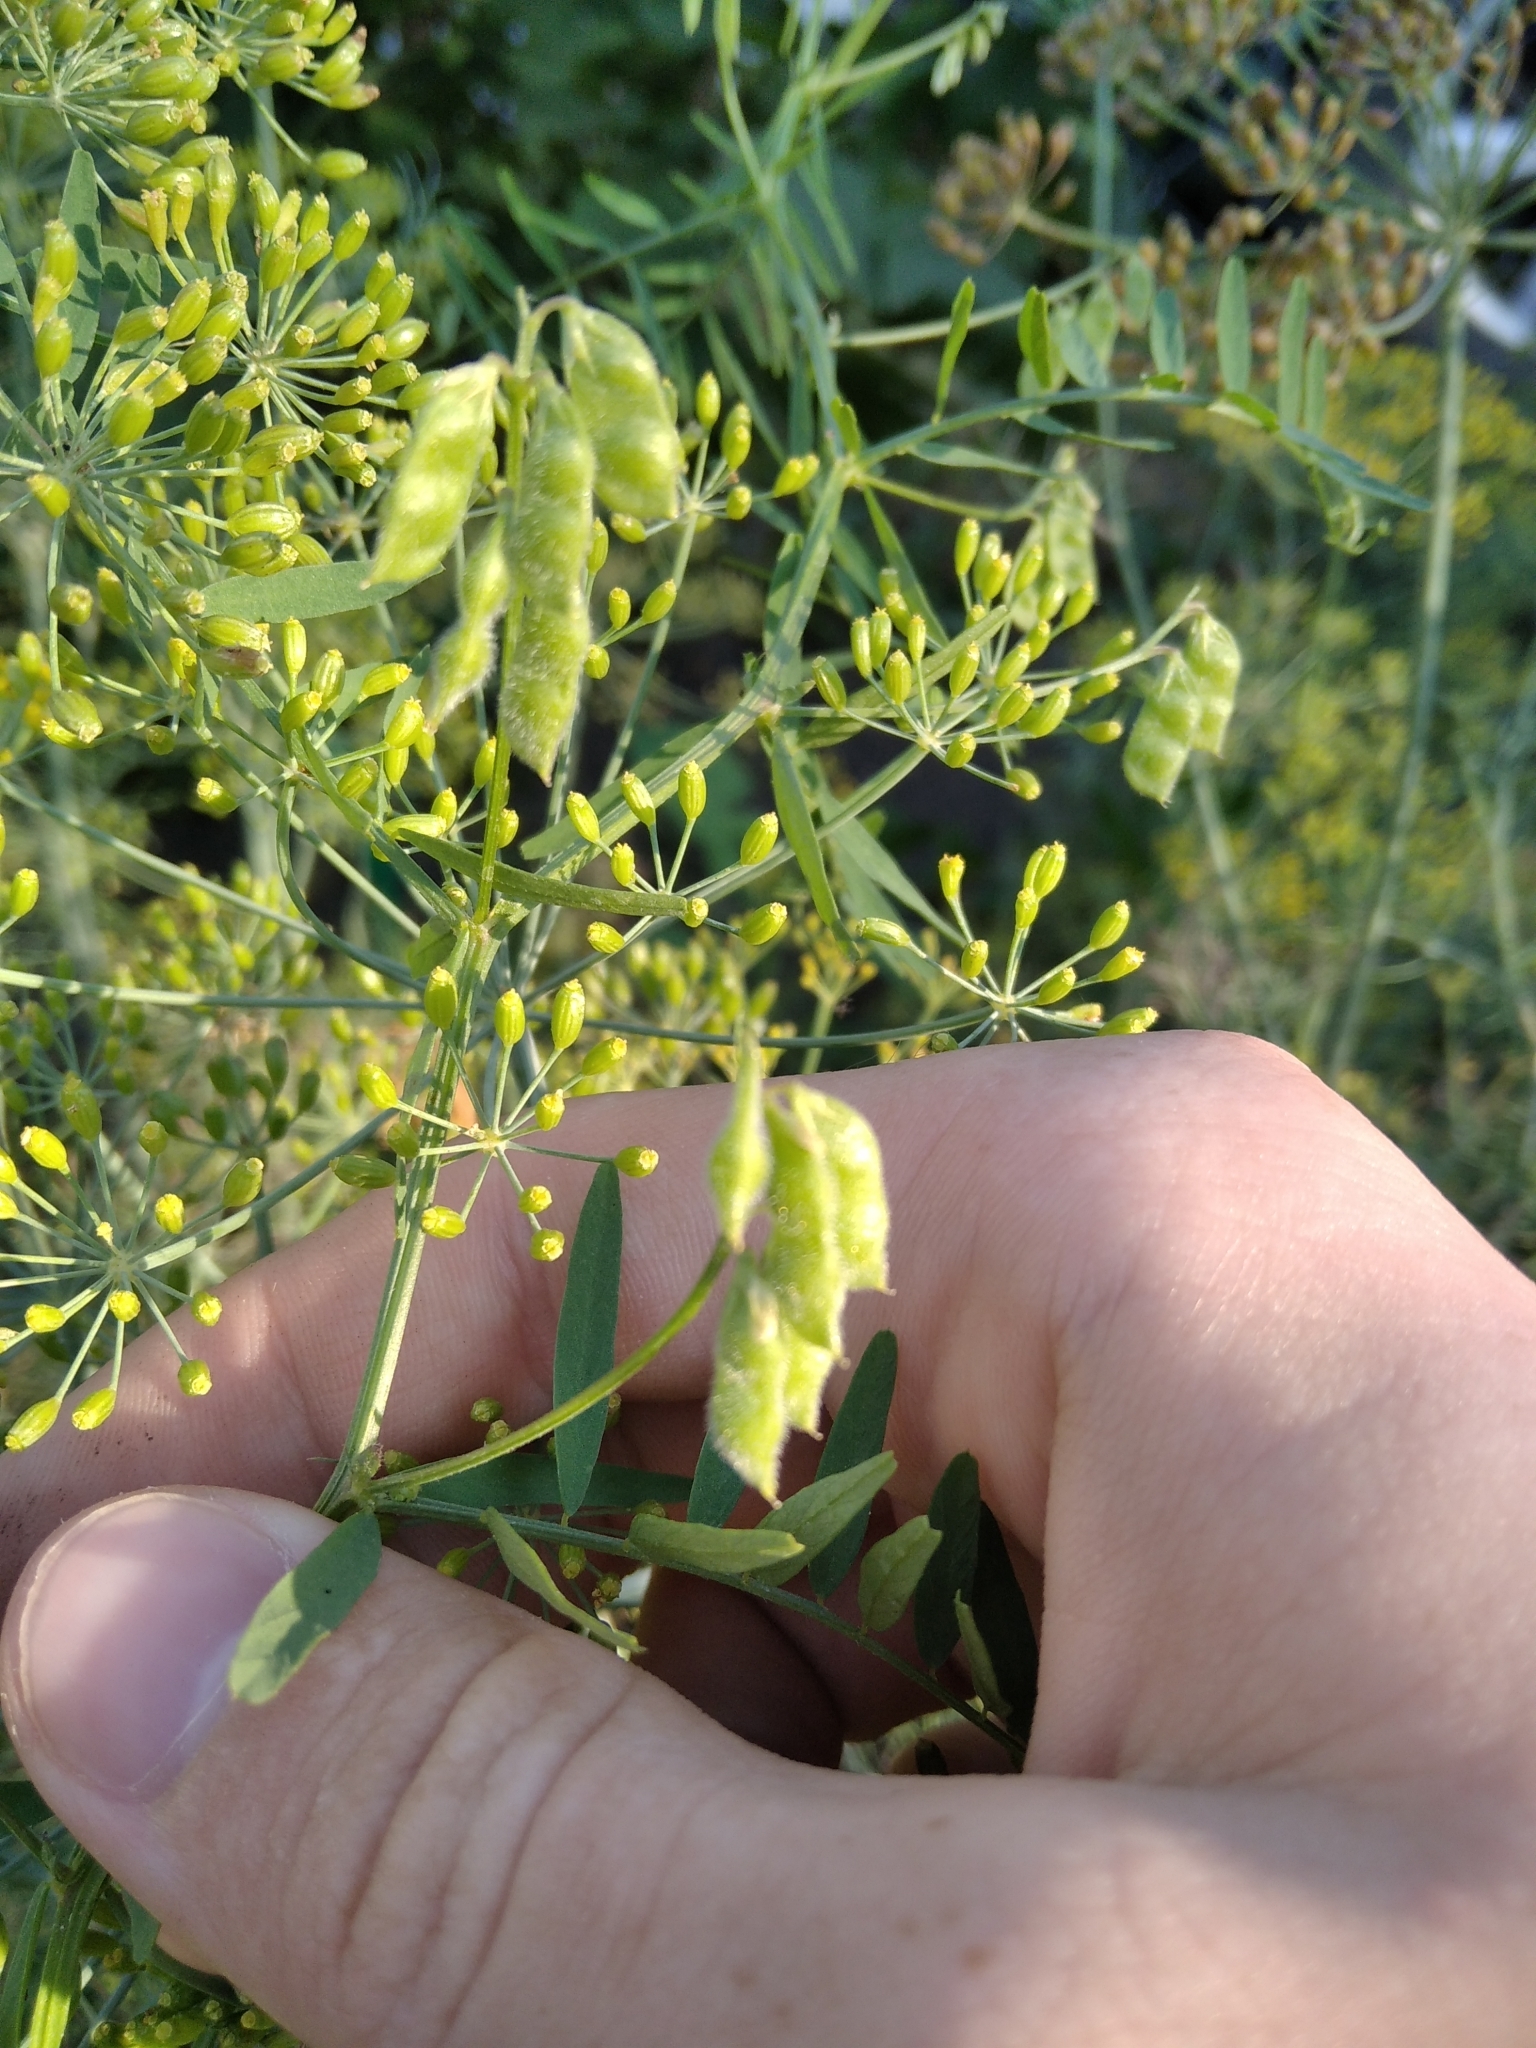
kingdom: Plantae
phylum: Tracheophyta
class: Magnoliopsida
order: Fabales
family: Fabaceae
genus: Vicia
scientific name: Vicia hirsuta
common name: Tiny vetch
